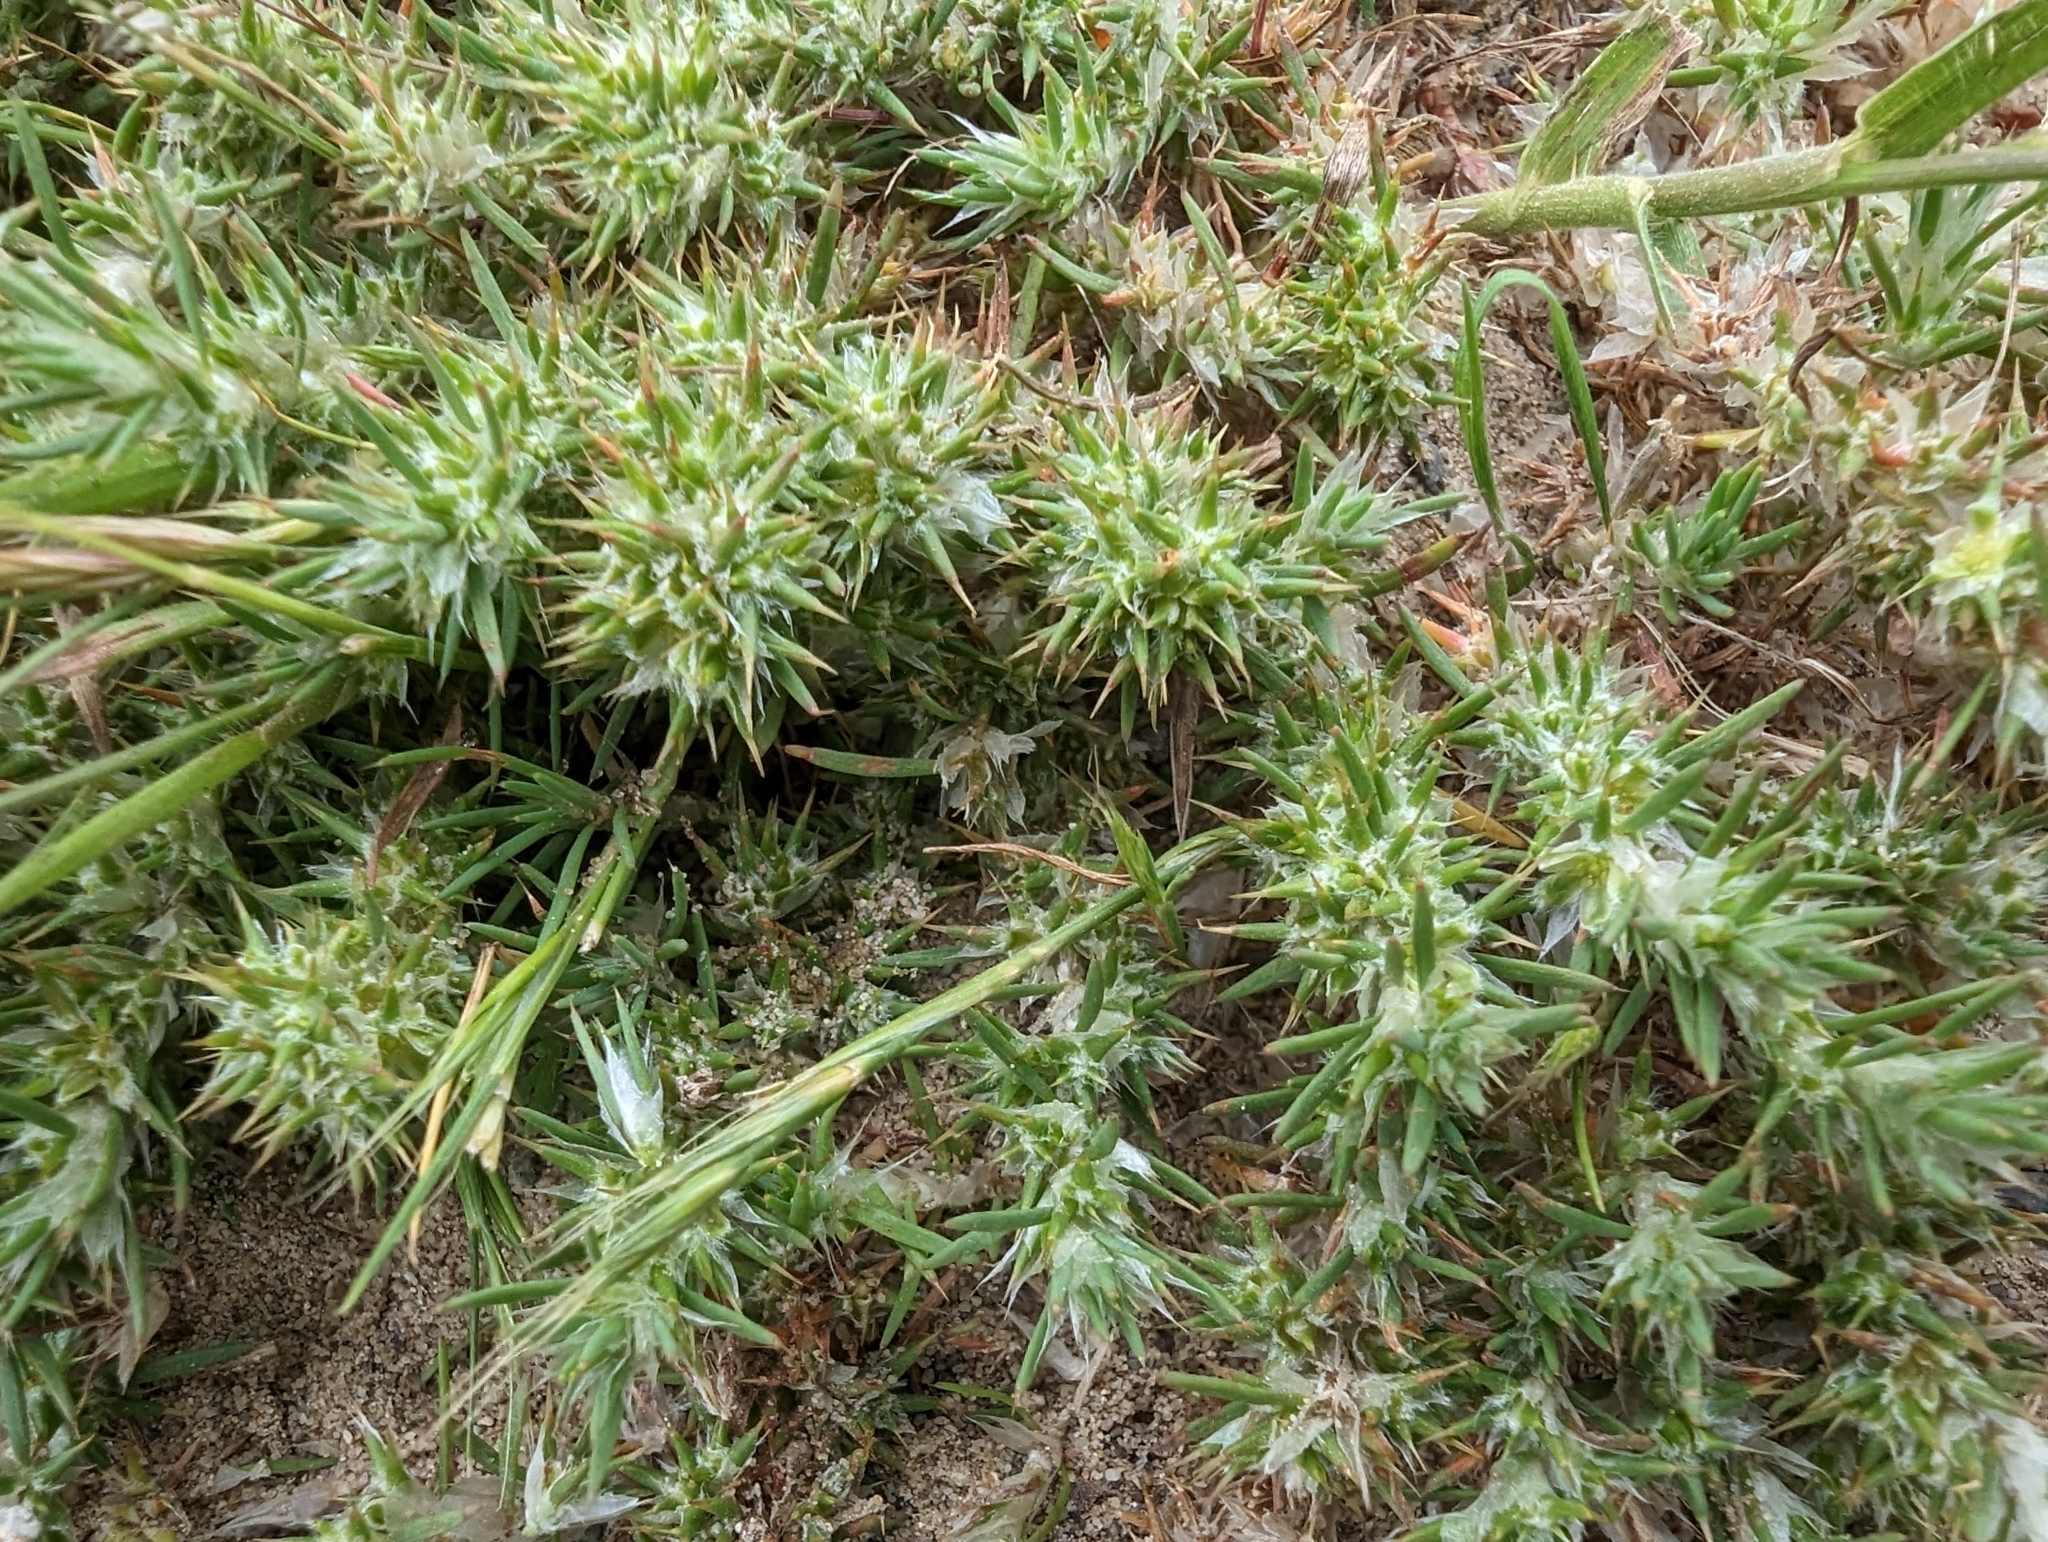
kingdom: Plantae
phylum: Tracheophyta
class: Magnoliopsida
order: Caryophyllales
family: Caryophyllaceae
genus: Cardionema
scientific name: Cardionema ramosissima
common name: Sandcarpet
